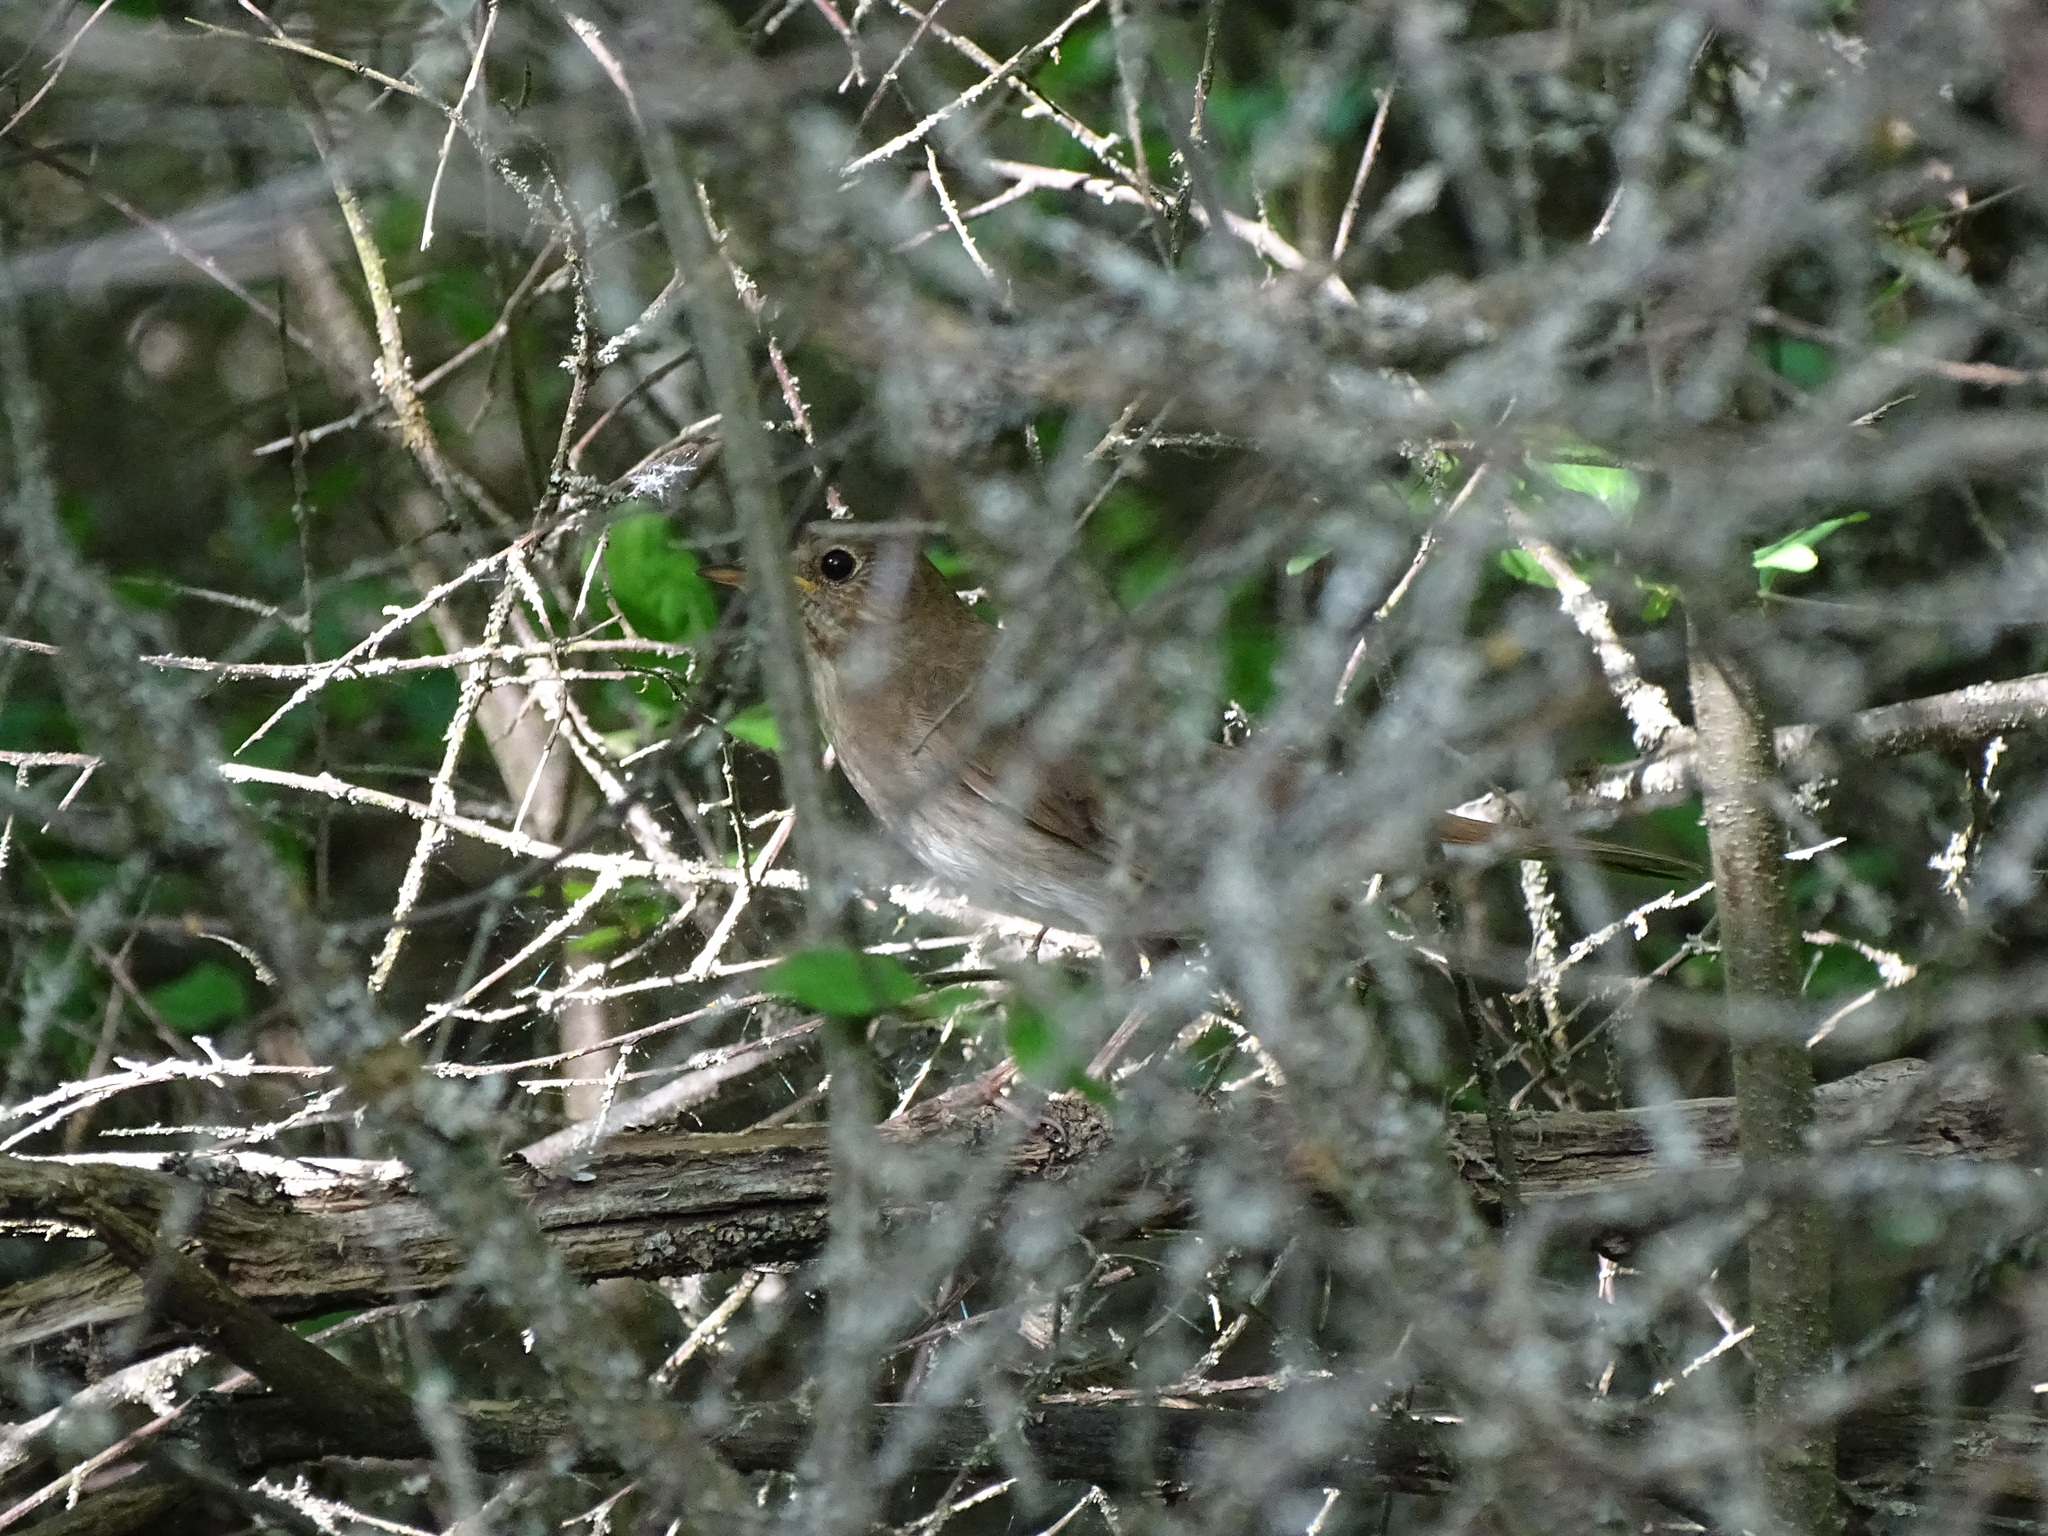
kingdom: Animalia
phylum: Chordata
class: Aves
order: Passeriformes
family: Muscicapidae
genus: Luscinia
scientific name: Luscinia luscinia
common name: Thrush nightingale
